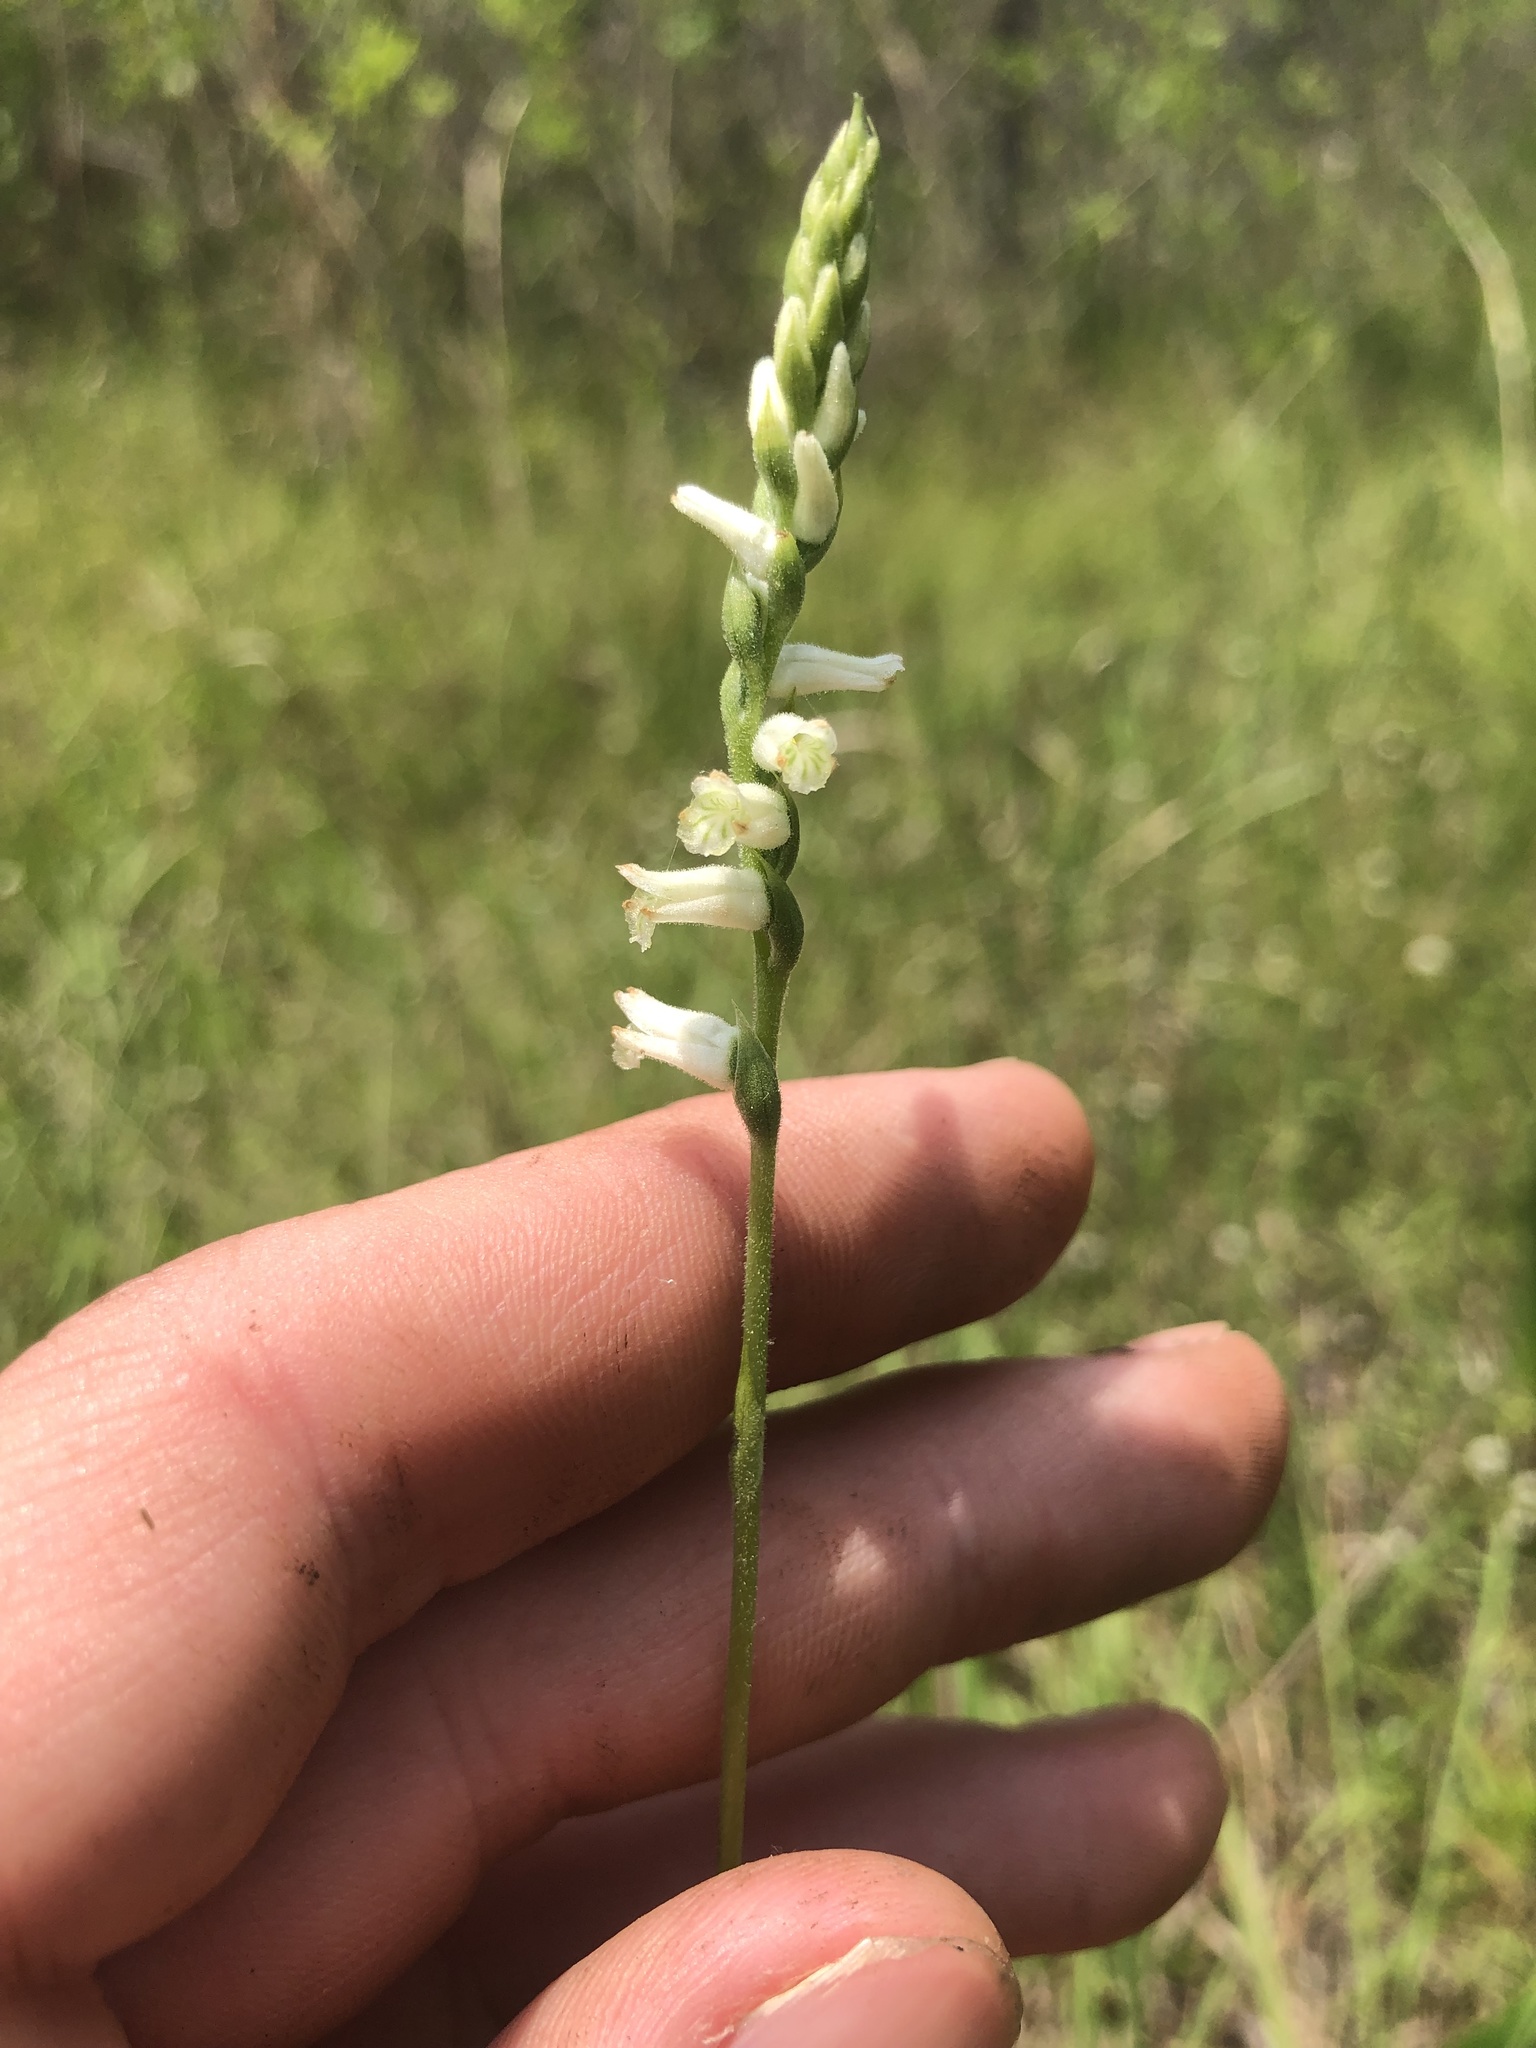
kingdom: Plantae
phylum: Tracheophyta
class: Liliopsida
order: Asparagales
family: Orchidaceae
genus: Spiranthes
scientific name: Spiranthes praecox
